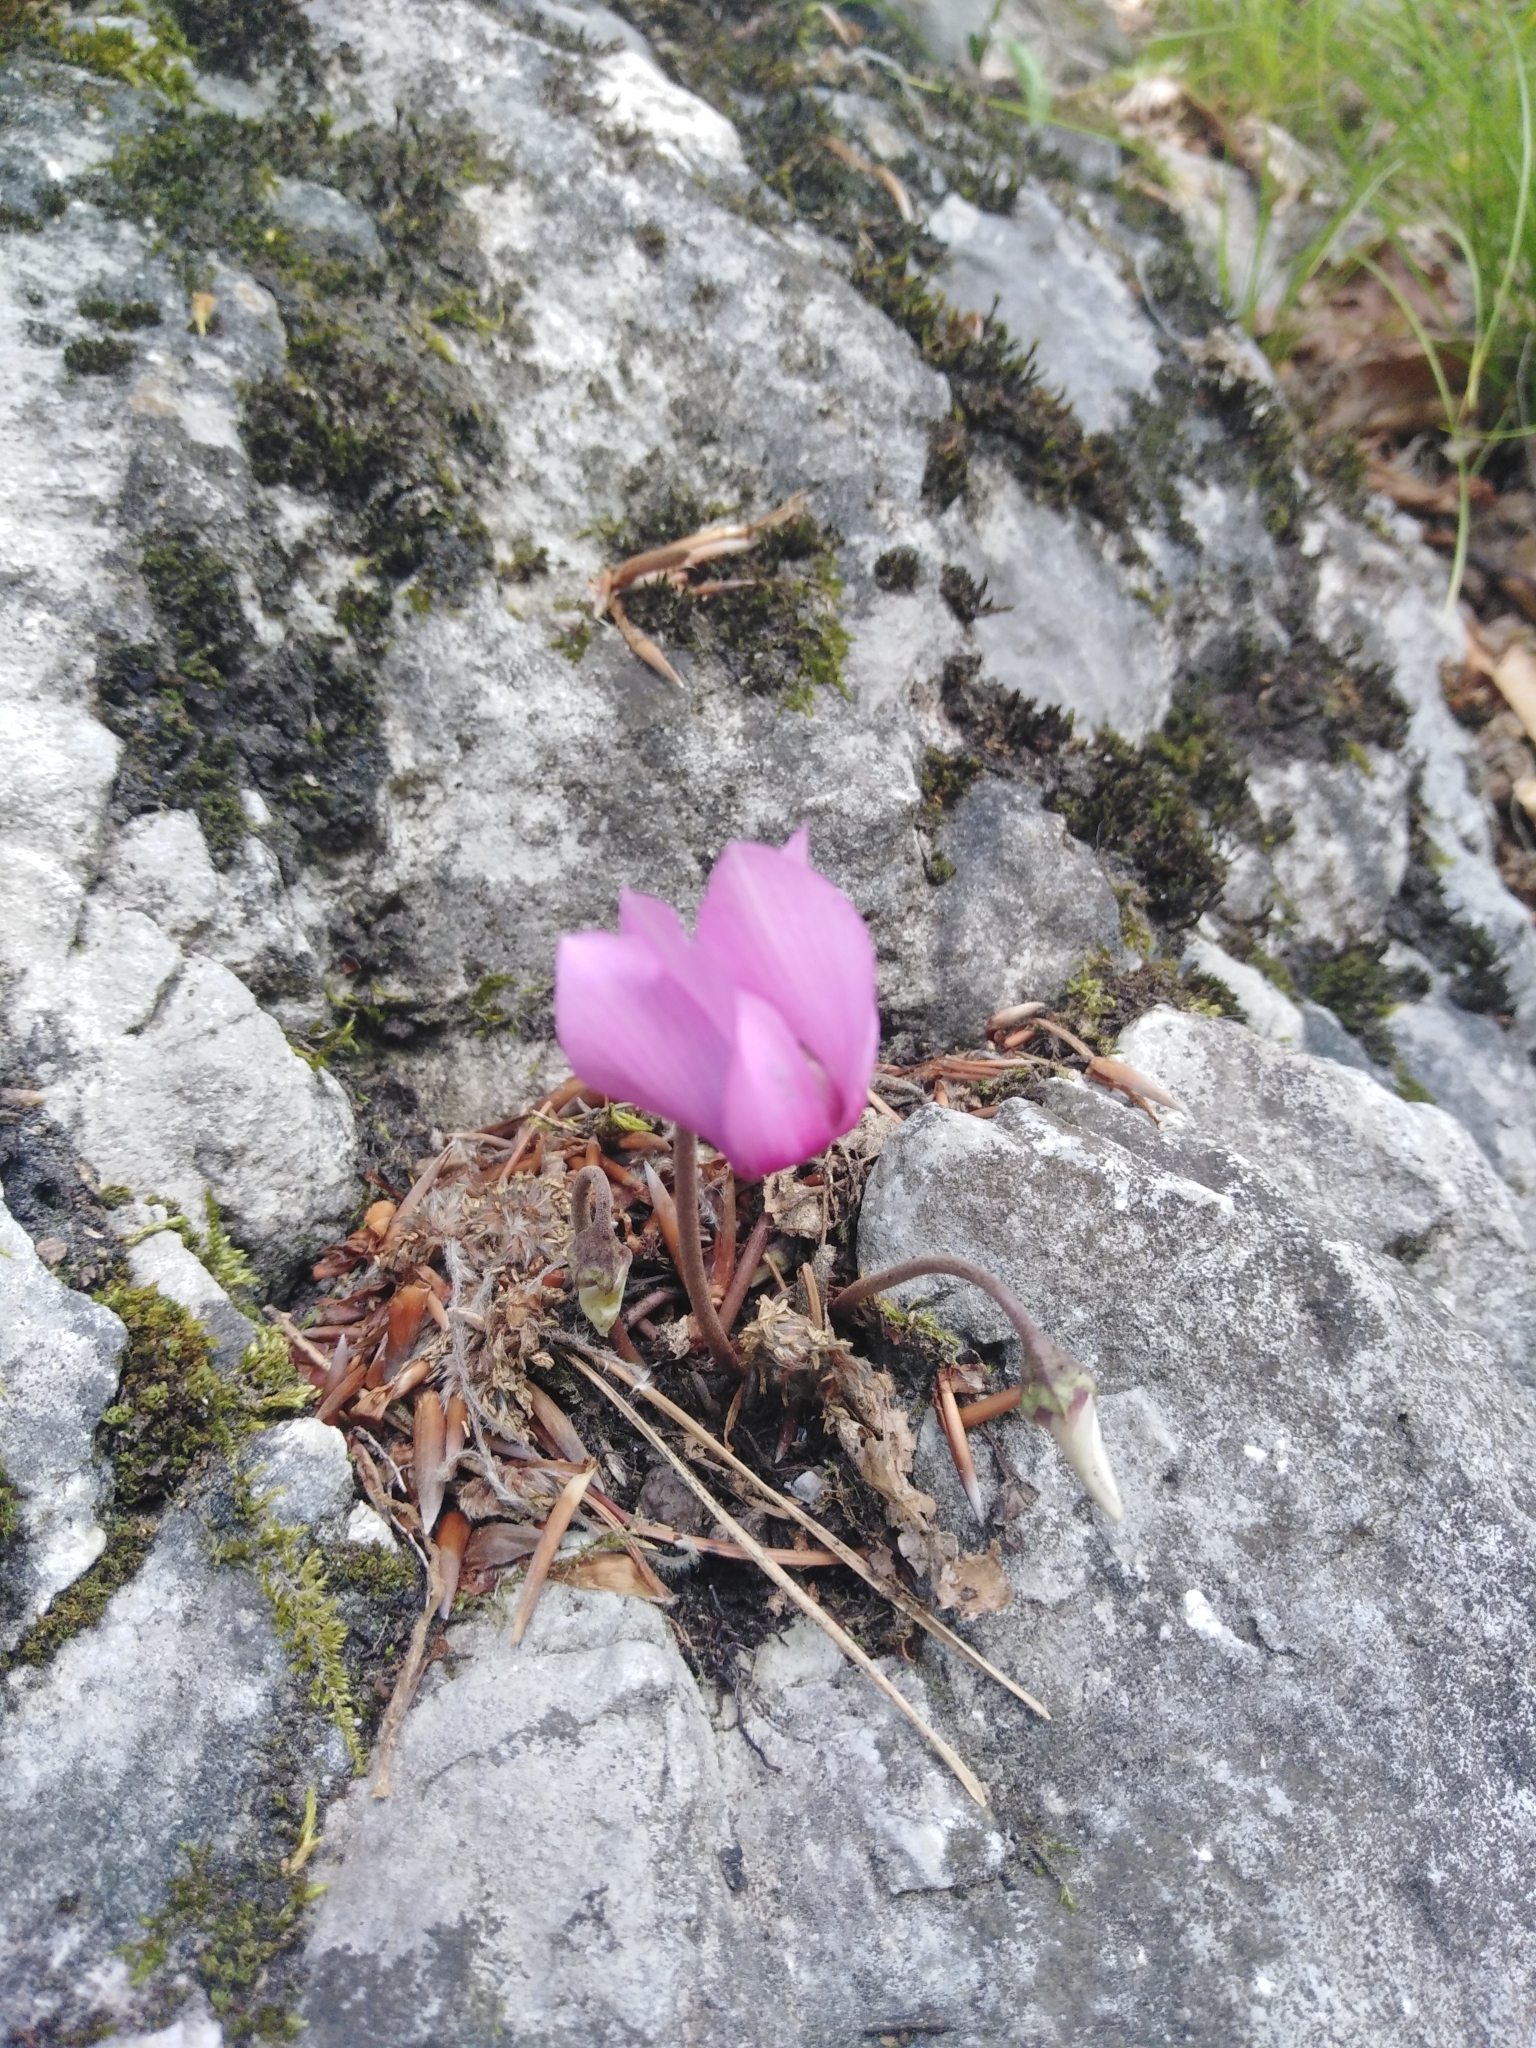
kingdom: Plantae
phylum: Tracheophyta
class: Magnoliopsida
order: Ericales
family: Primulaceae
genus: Cyclamen
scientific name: Cyclamen purpurascens
